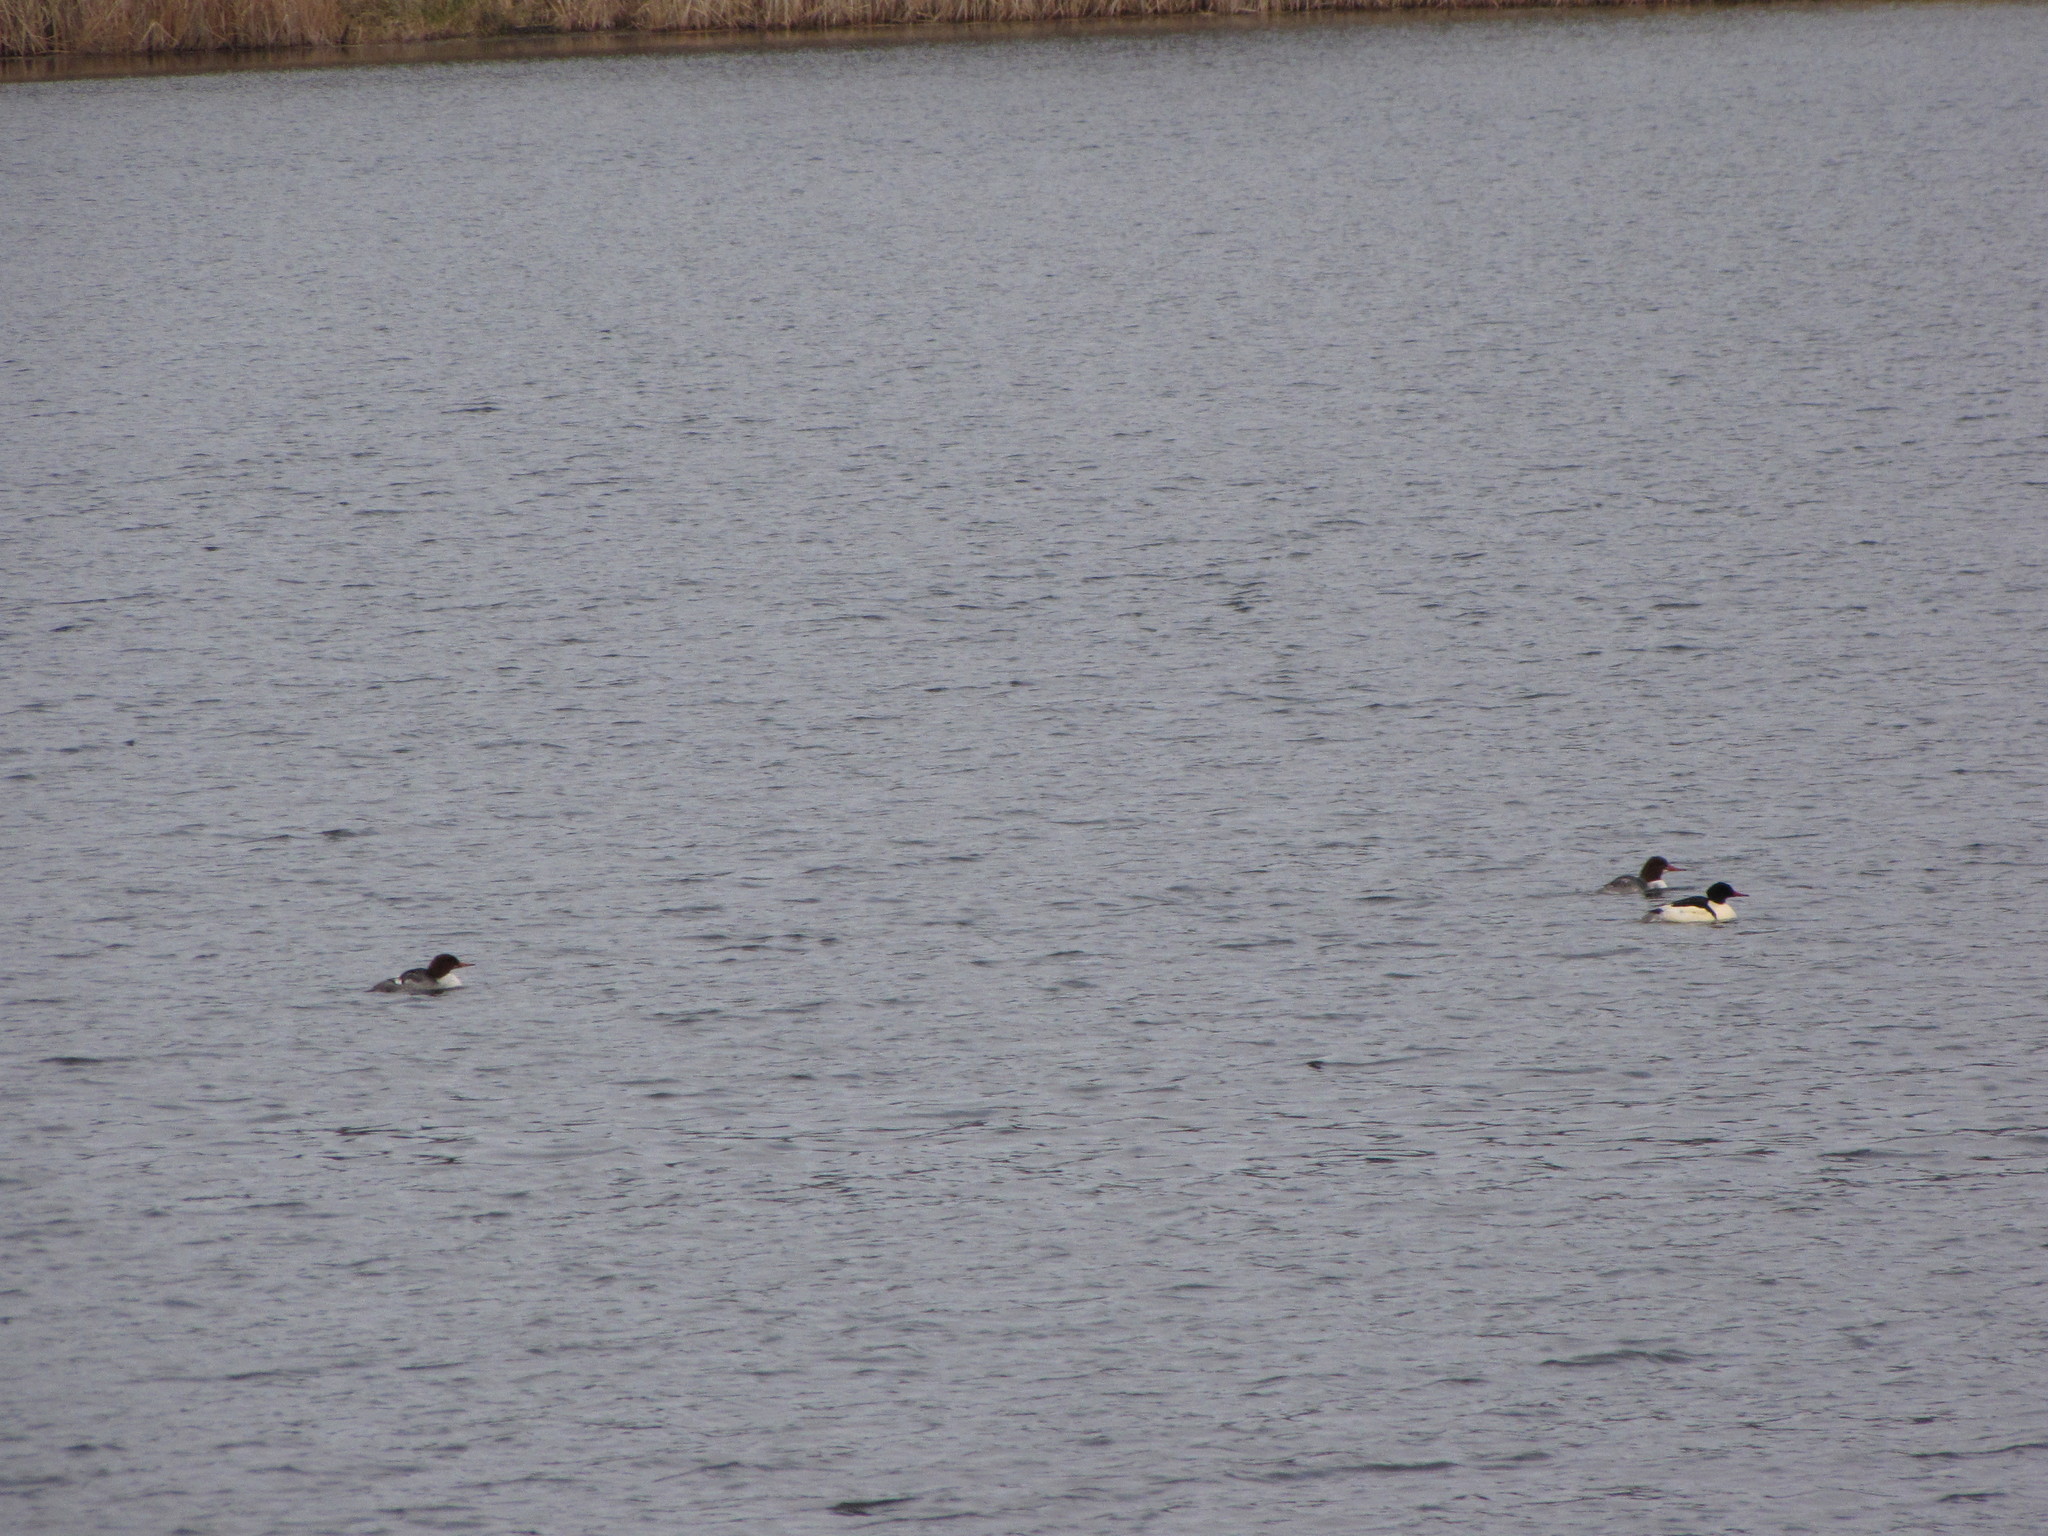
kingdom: Animalia
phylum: Chordata
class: Aves
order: Anseriformes
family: Anatidae
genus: Mergus
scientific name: Mergus merganser
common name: Common merganser
